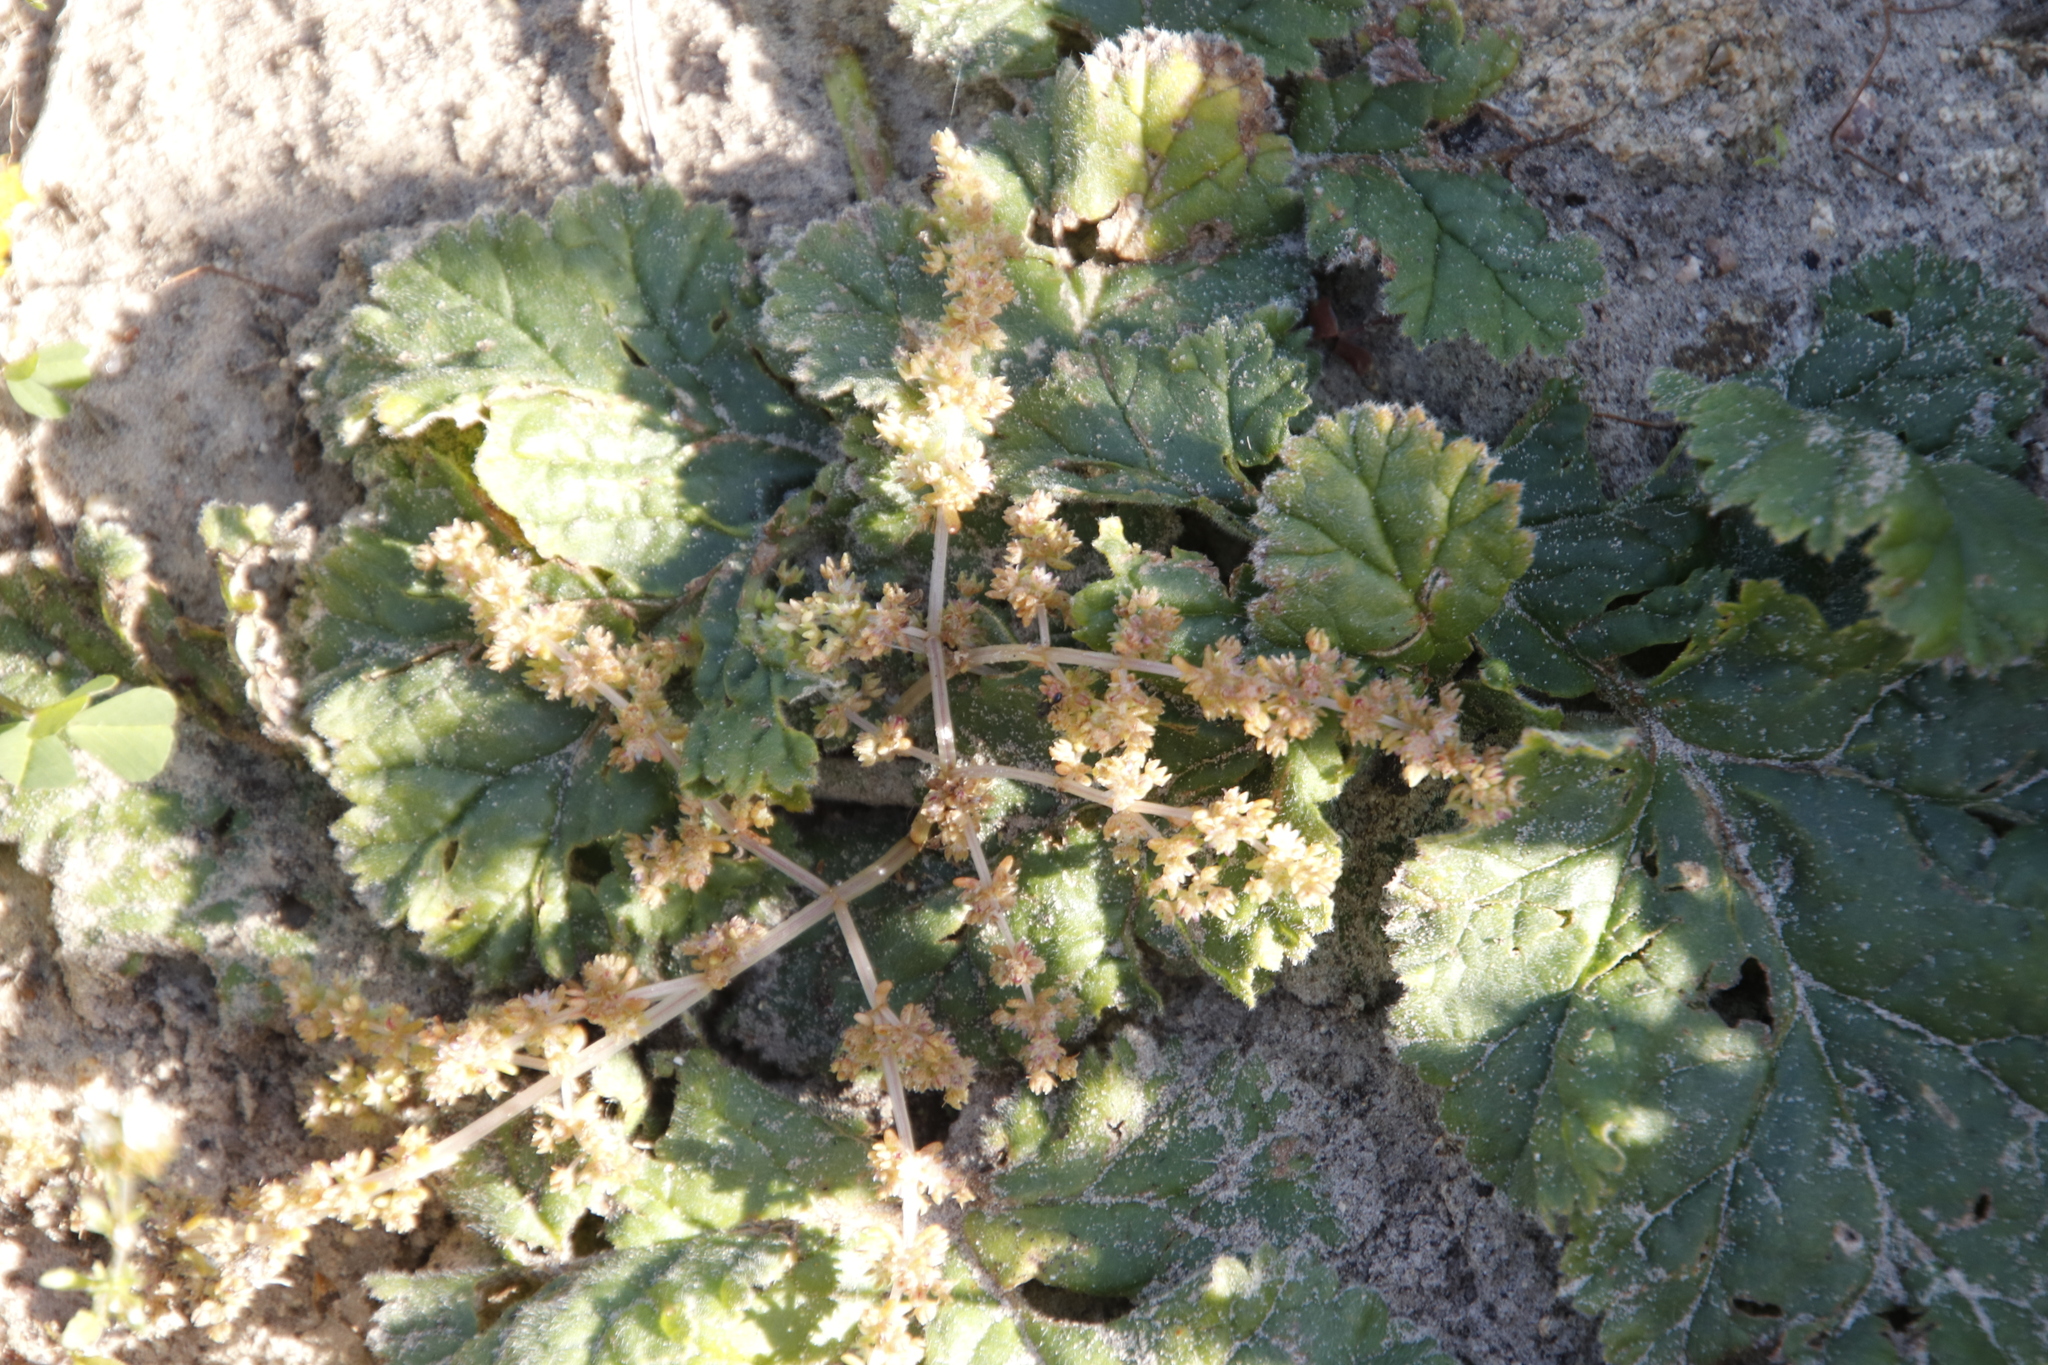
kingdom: Plantae
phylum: Tracheophyta
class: Magnoliopsida
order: Geraniales
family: Geraniaceae
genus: Pelargonium
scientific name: Pelargonium lobatum
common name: Vine-leaf pelargonium
